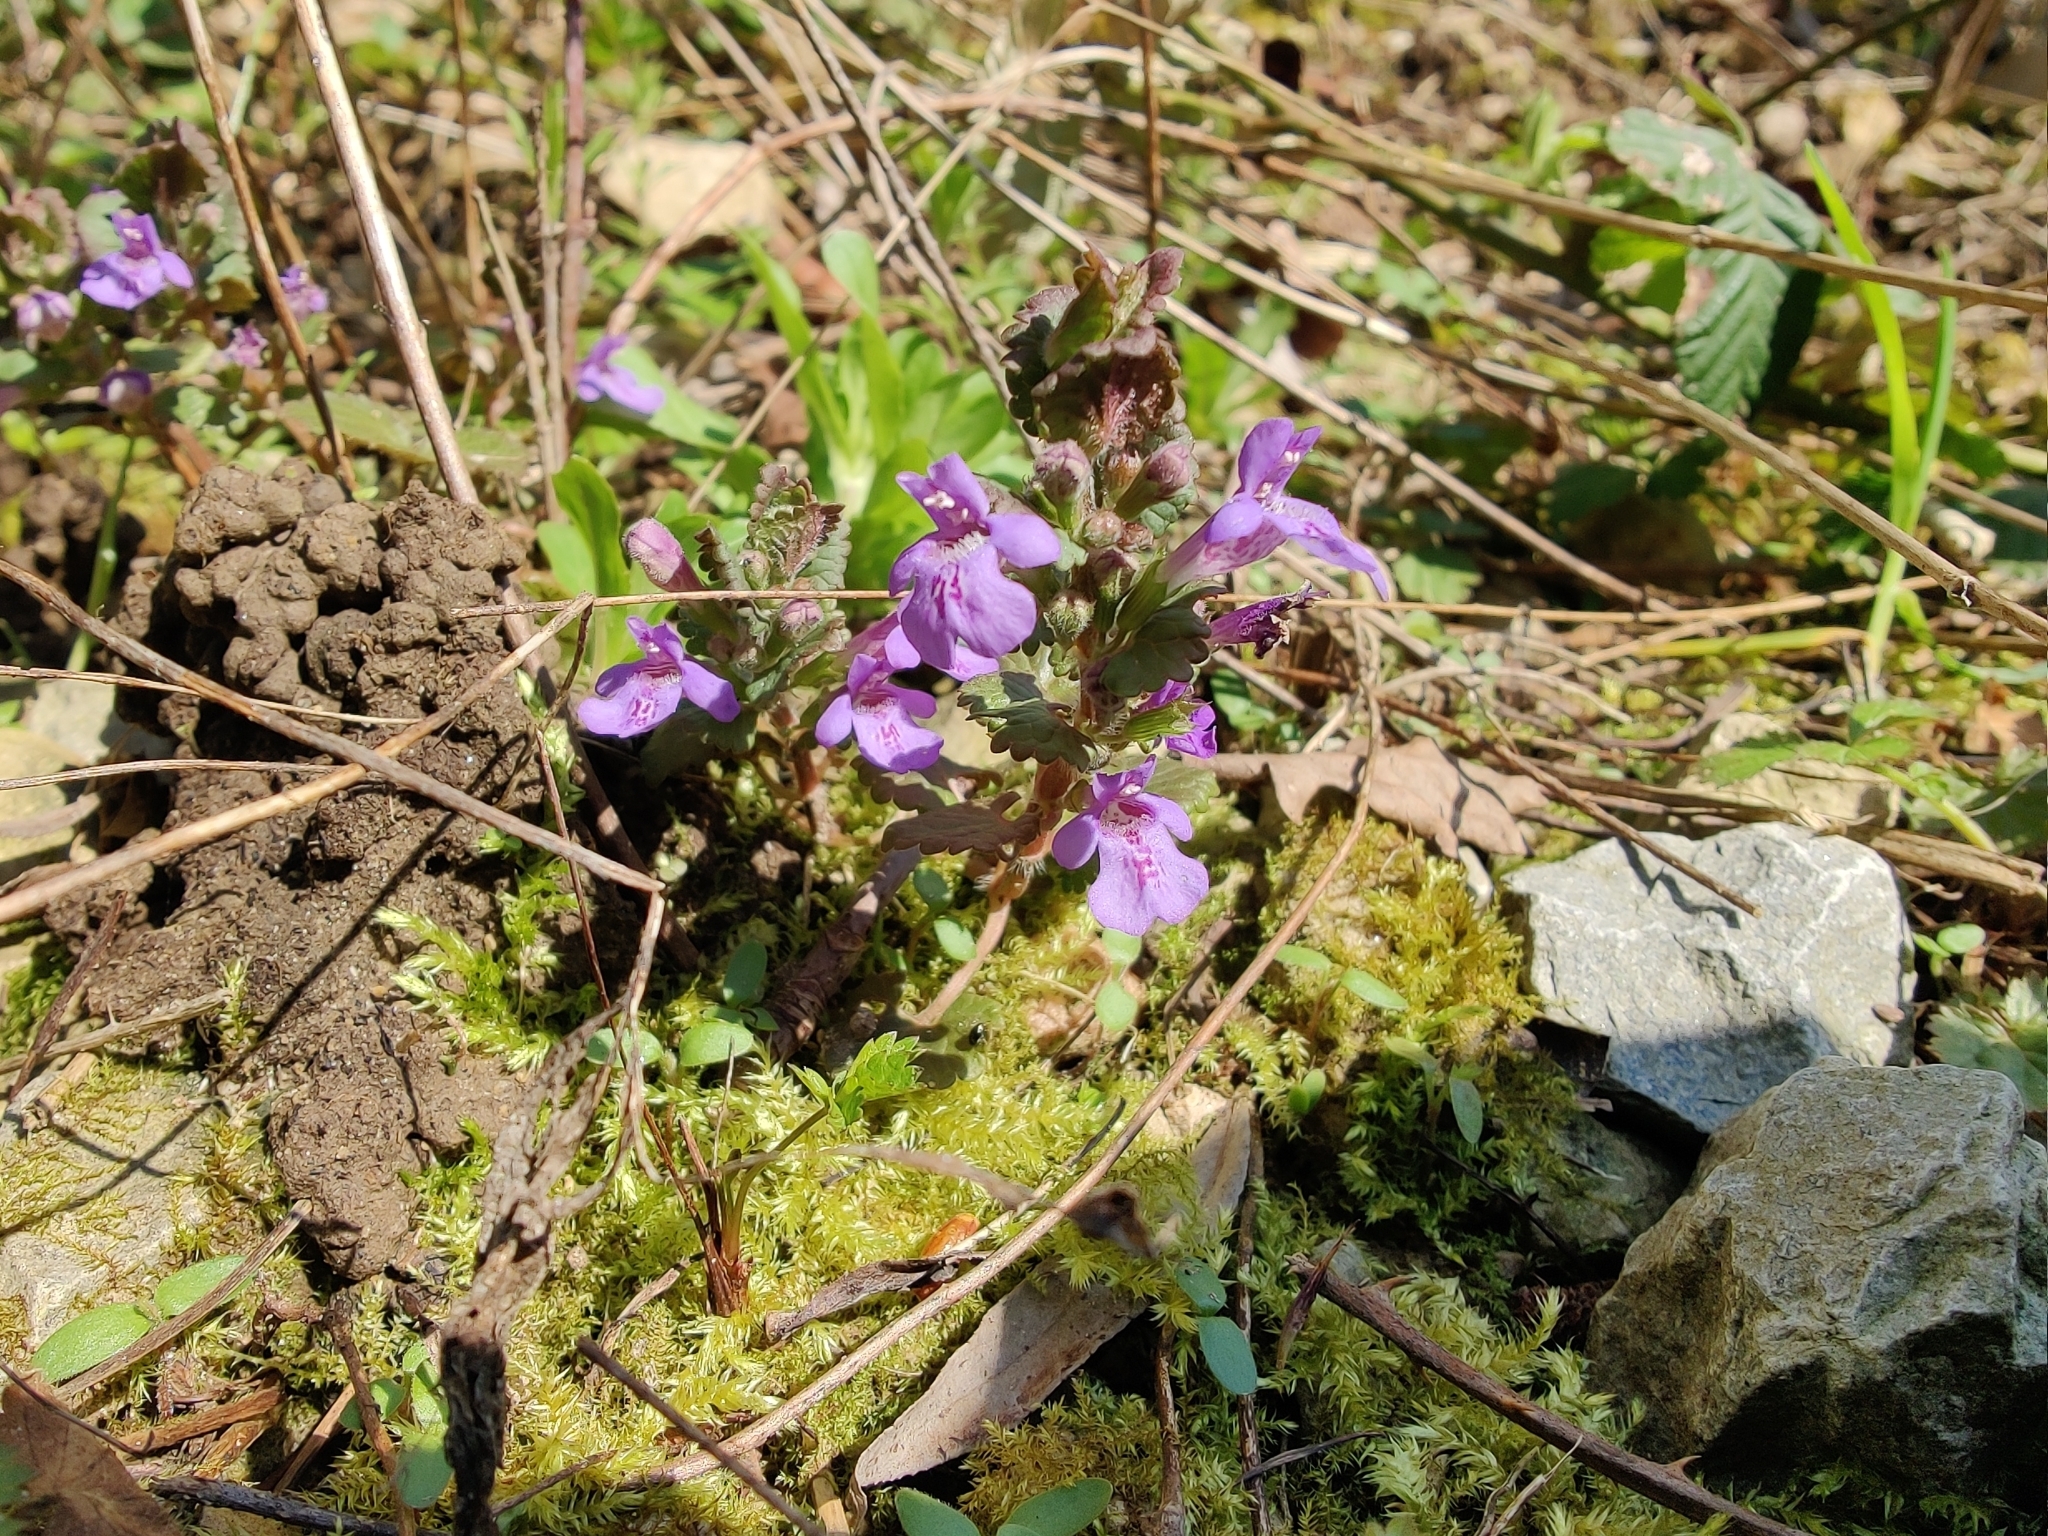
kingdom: Plantae
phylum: Tracheophyta
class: Magnoliopsida
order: Lamiales
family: Lamiaceae
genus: Glechoma
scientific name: Glechoma hederacea
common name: Ground ivy
